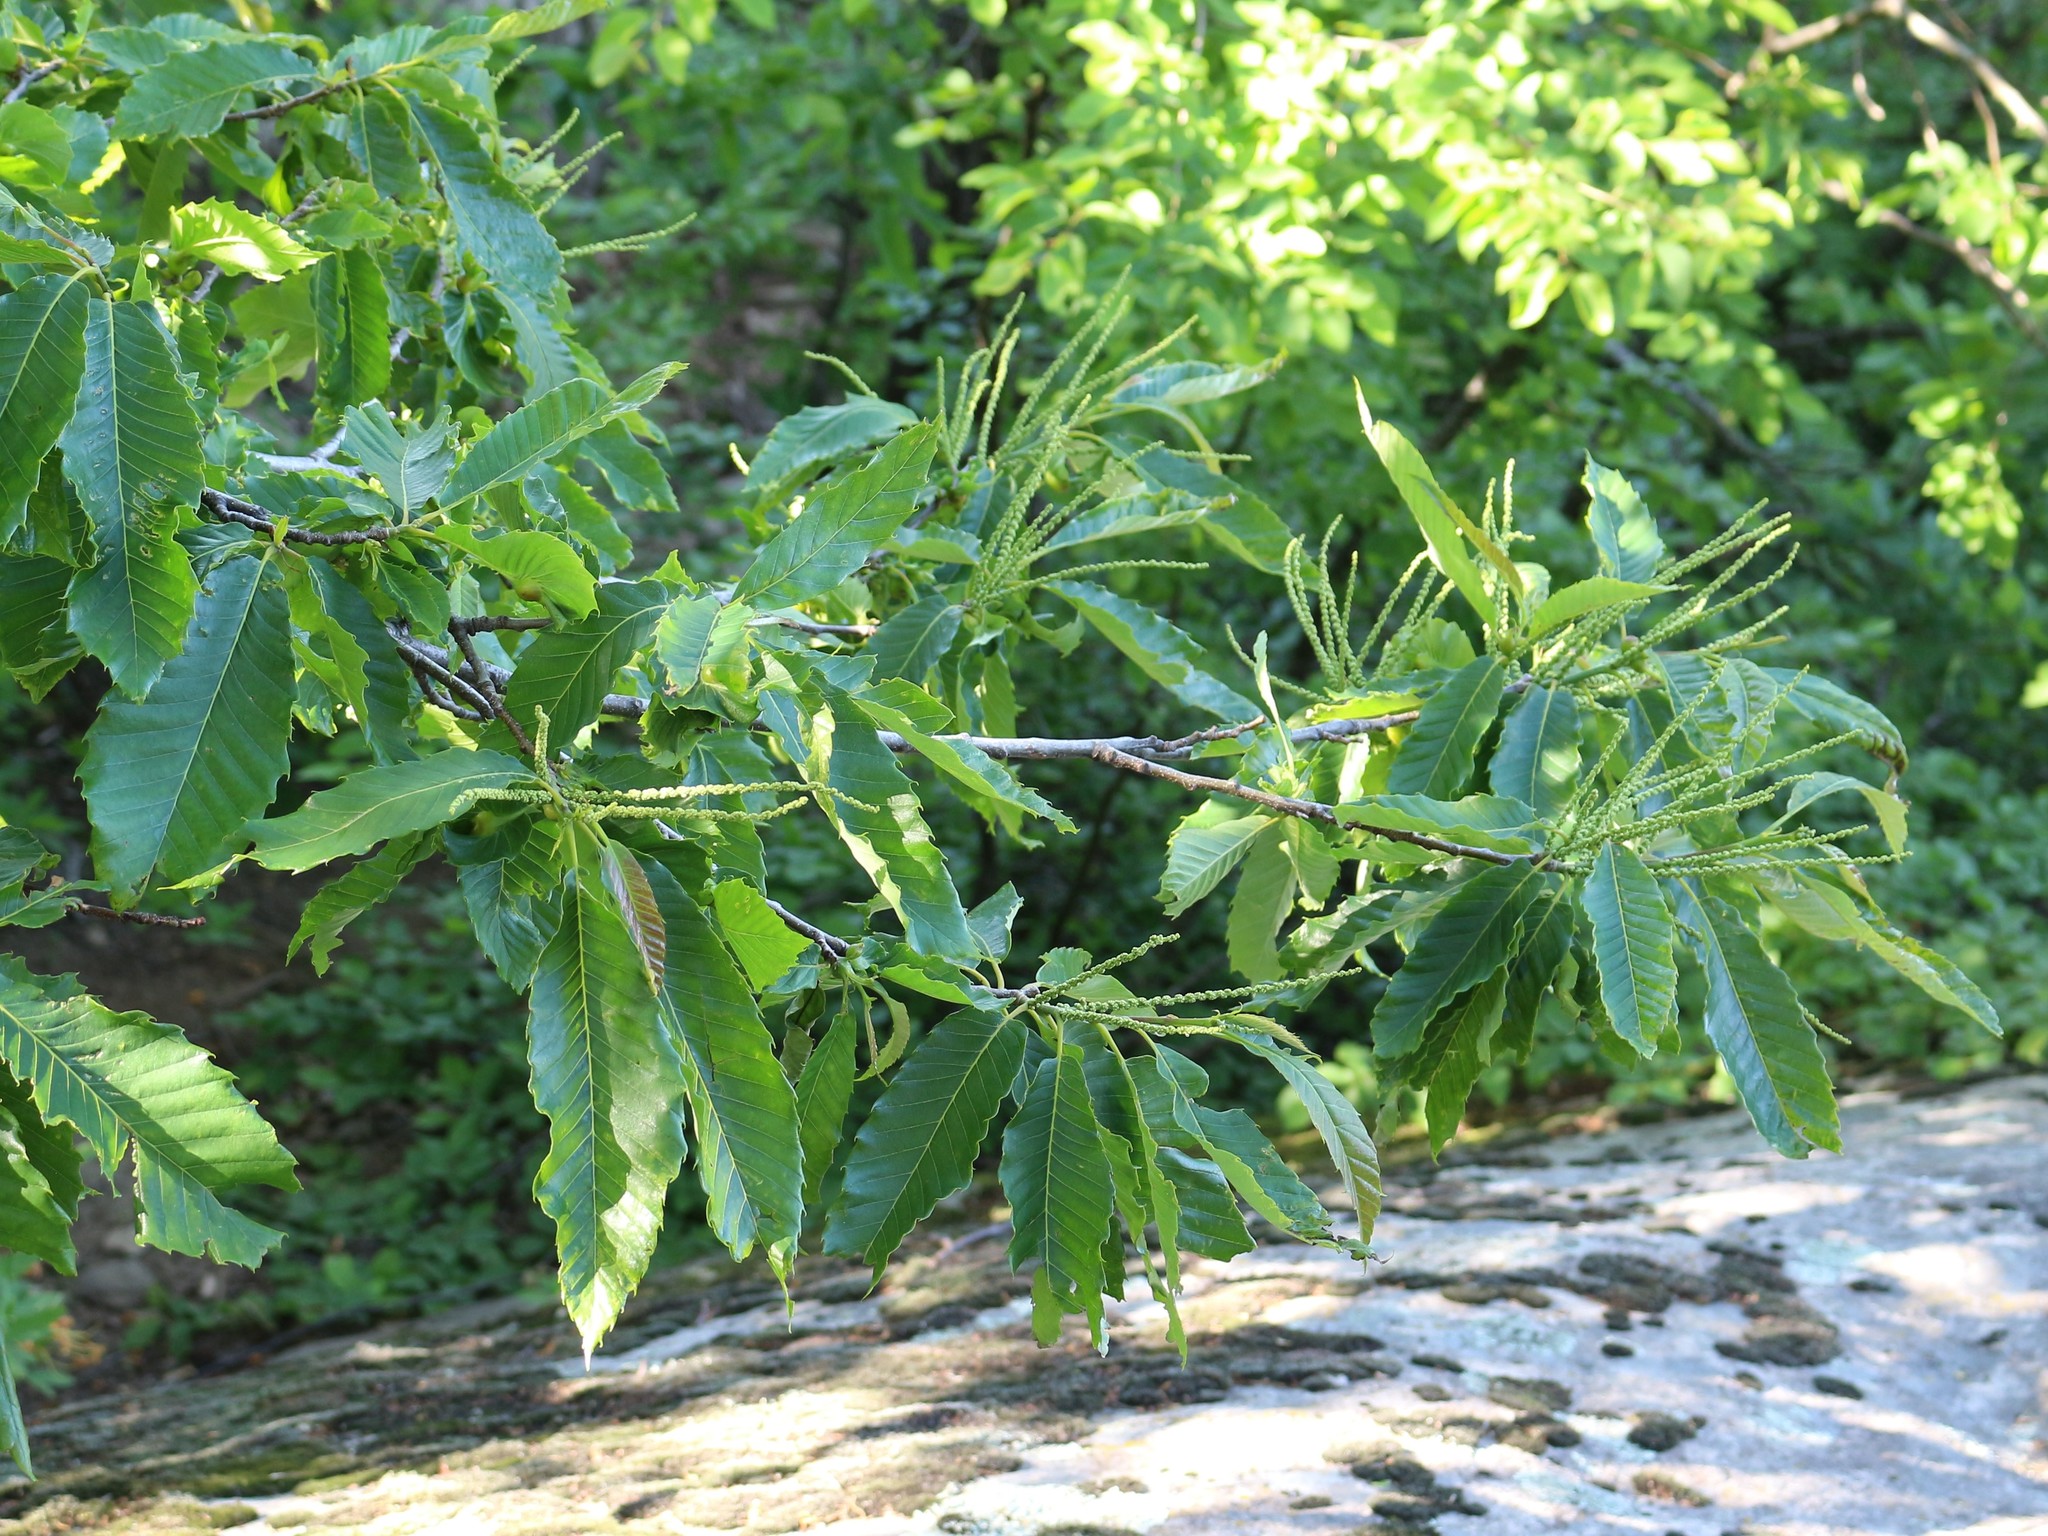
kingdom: Plantae
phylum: Tracheophyta
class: Magnoliopsida
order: Fagales
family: Fagaceae
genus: Castanea
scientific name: Castanea sativa
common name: Sweet chestnut
